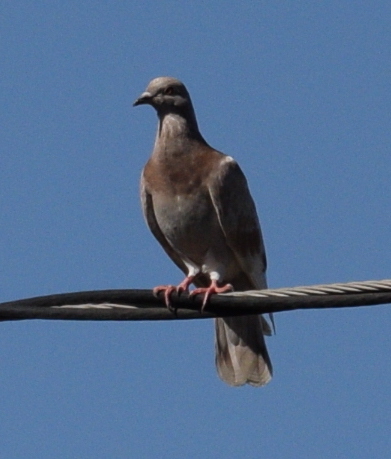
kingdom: Animalia
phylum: Chordata
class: Aves
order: Columbiformes
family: Columbidae
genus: Columba
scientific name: Columba livia
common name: Rock pigeon
